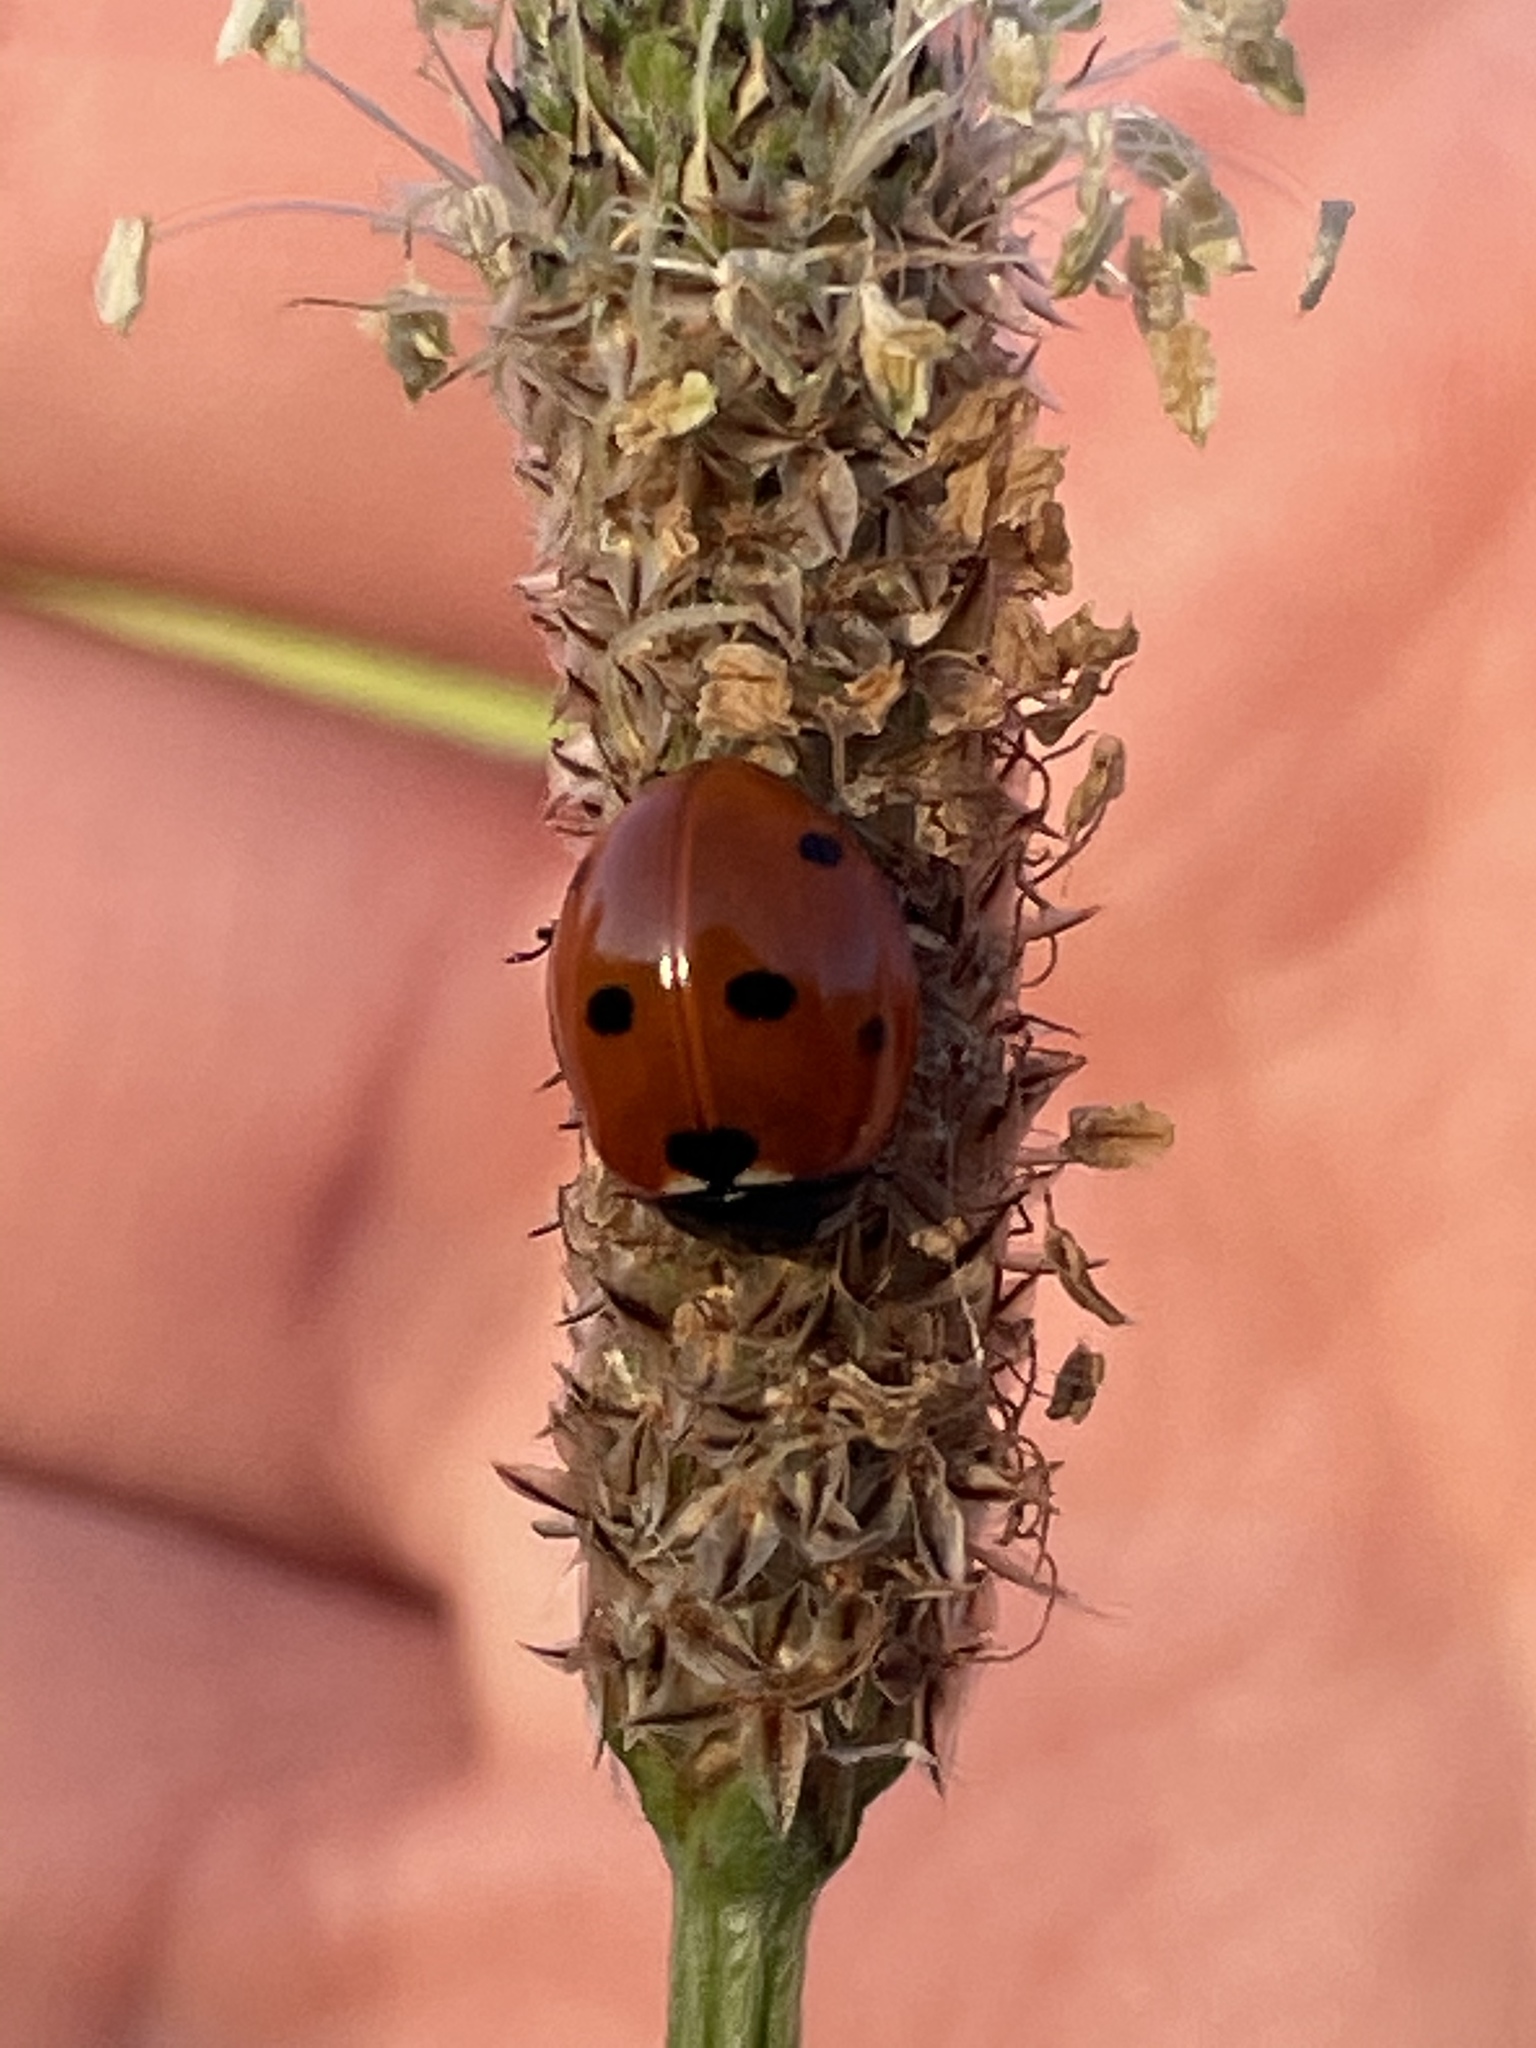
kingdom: Animalia
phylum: Arthropoda
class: Insecta
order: Coleoptera
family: Coccinellidae
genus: Coccinella
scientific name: Coccinella septempunctata
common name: Sevenspotted lady beetle
